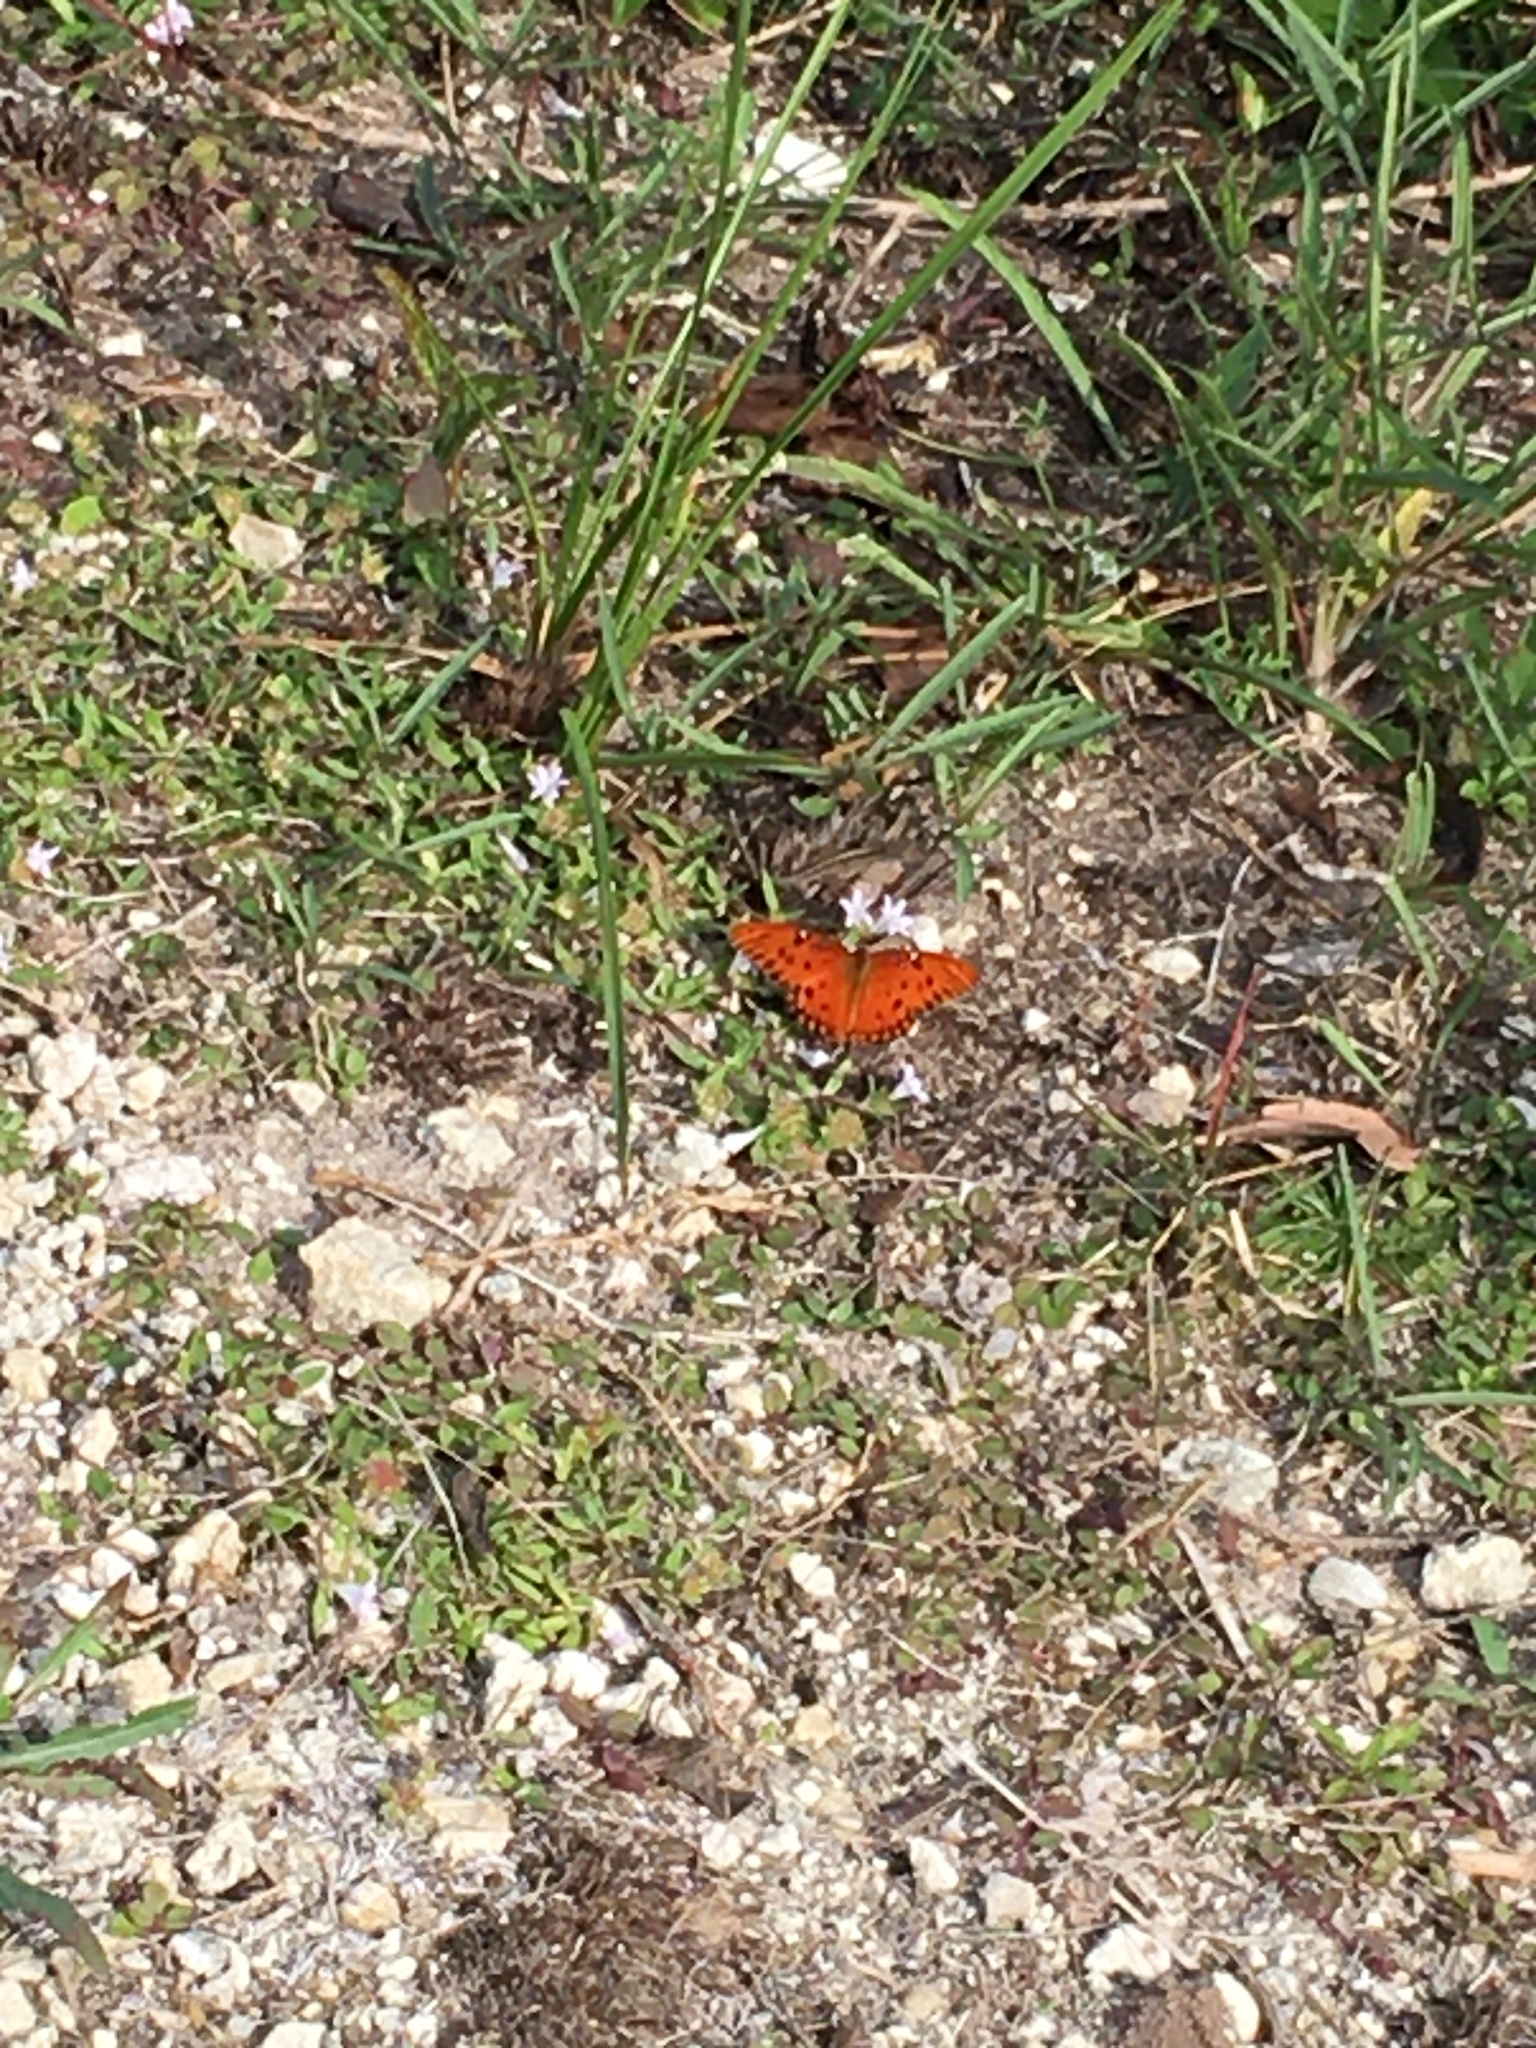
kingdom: Animalia
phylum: Arthropoda
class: Insecta
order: Lepidoptera
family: Nymphalidae
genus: Dione
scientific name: Dione vanillae
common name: Gulf fritillary
